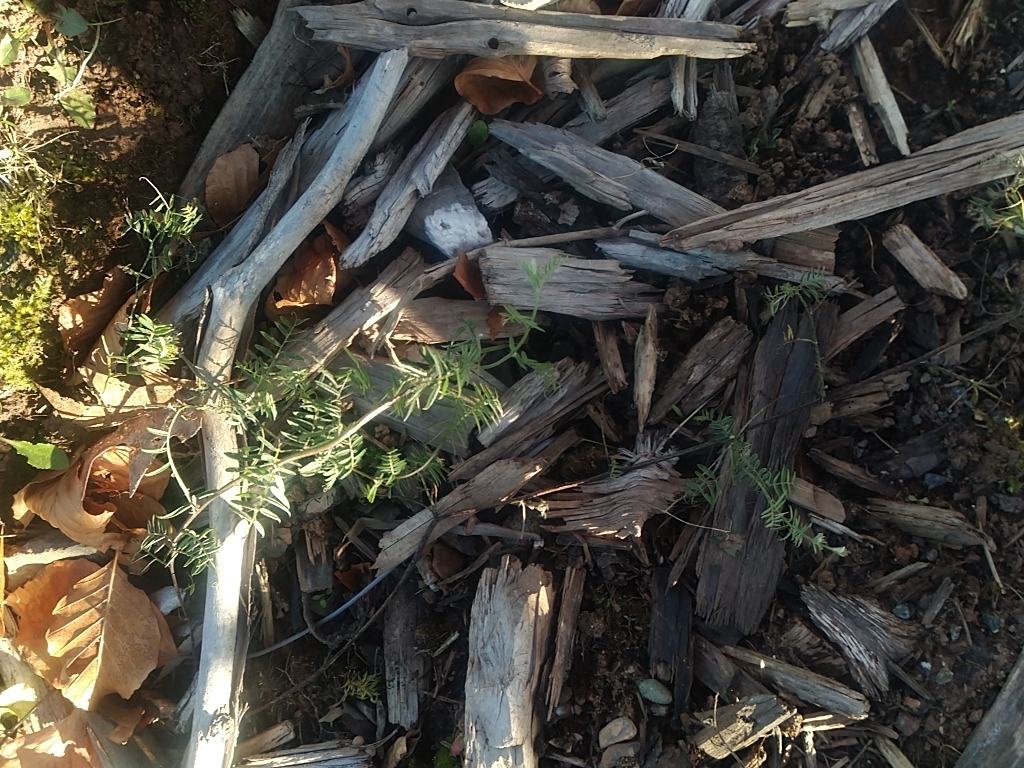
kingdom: Plantae
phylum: Tracheophyta
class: Magnoliopsida
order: Fabales
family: Fabaceae
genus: Vicia
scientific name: Vicia cracca
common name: Bird vetch
